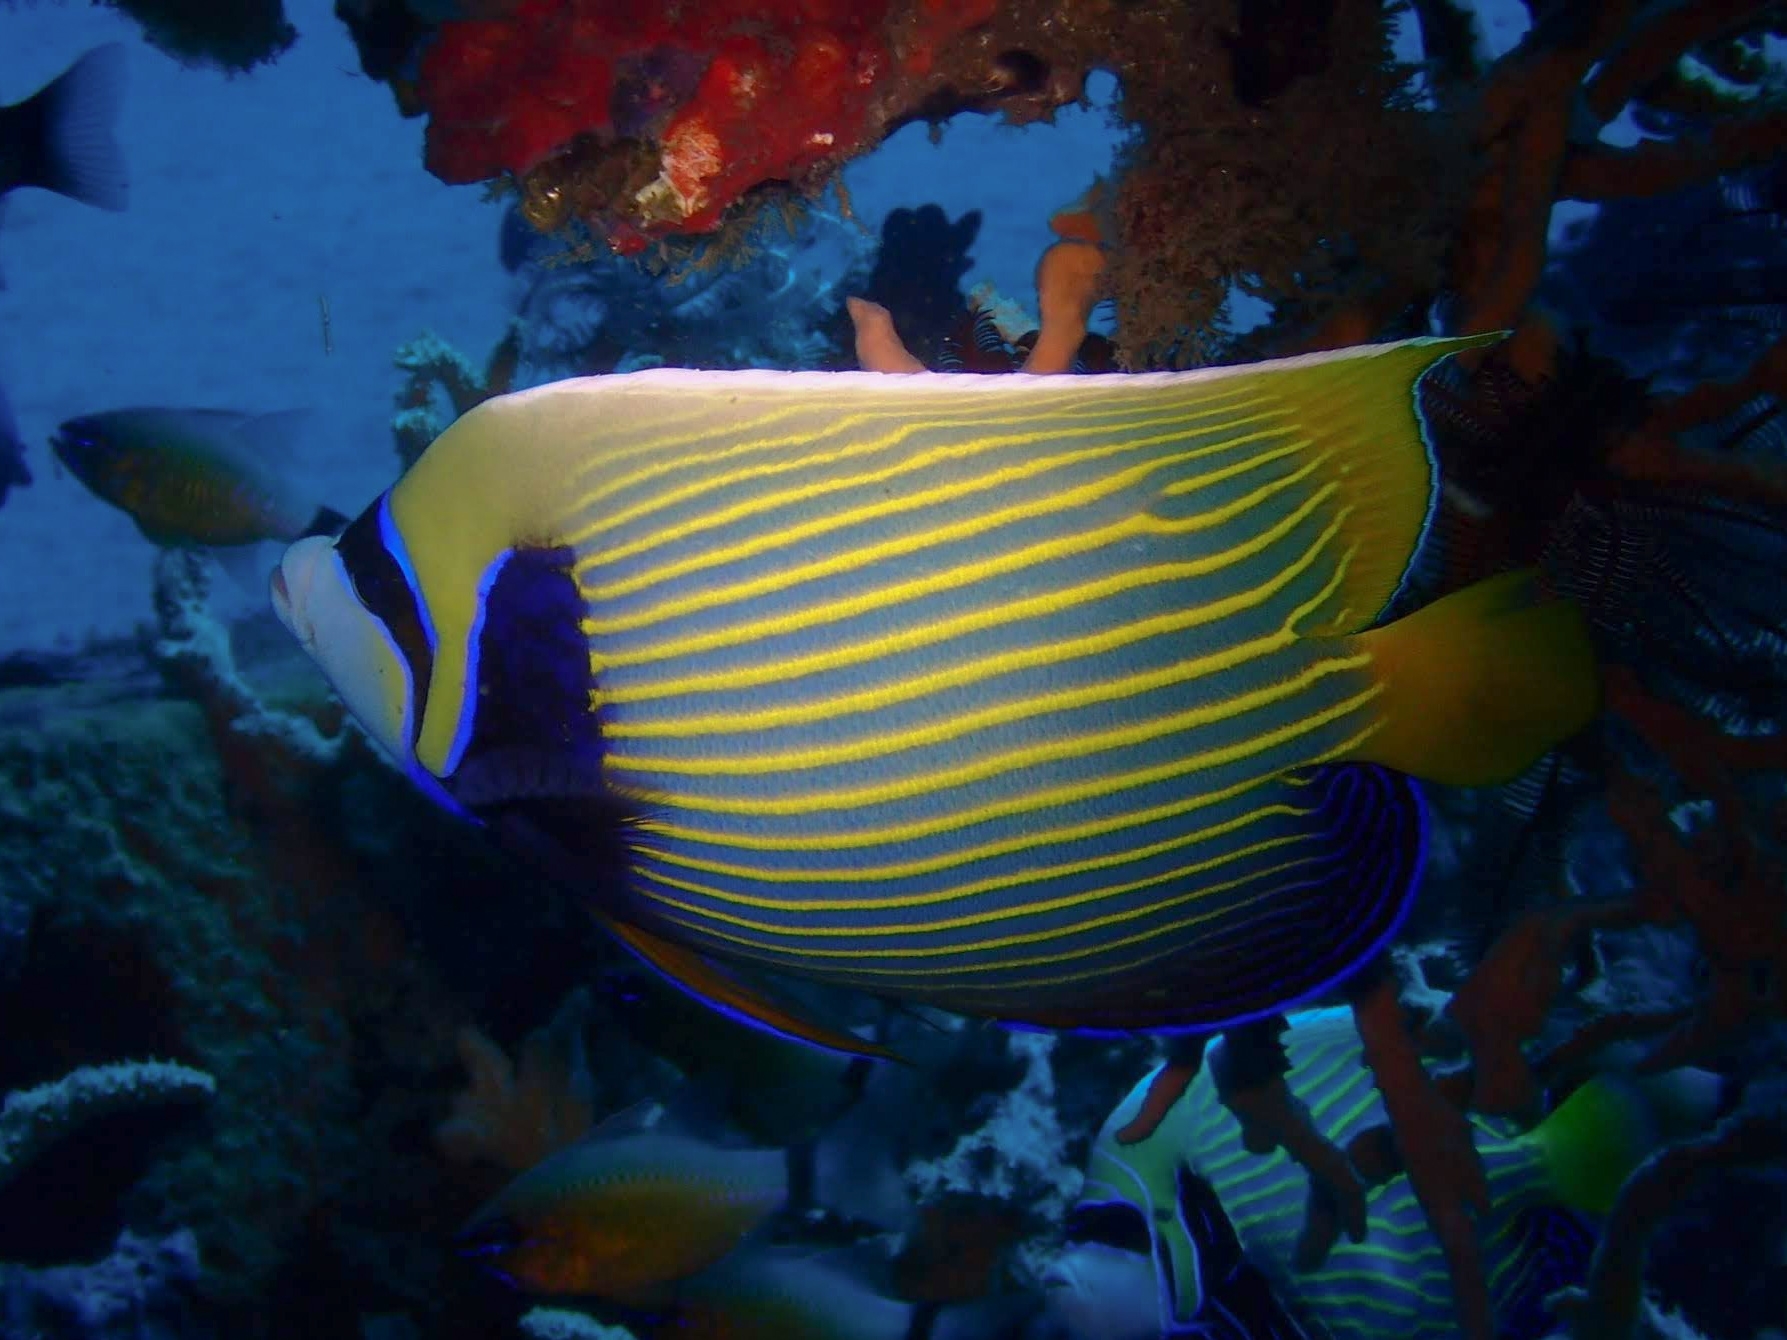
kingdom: Animalia
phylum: Chordata
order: Perciformes
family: Pomacanthidae
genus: Pomacanthus
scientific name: Pomacanthus imperator
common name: Emperor angelfish
